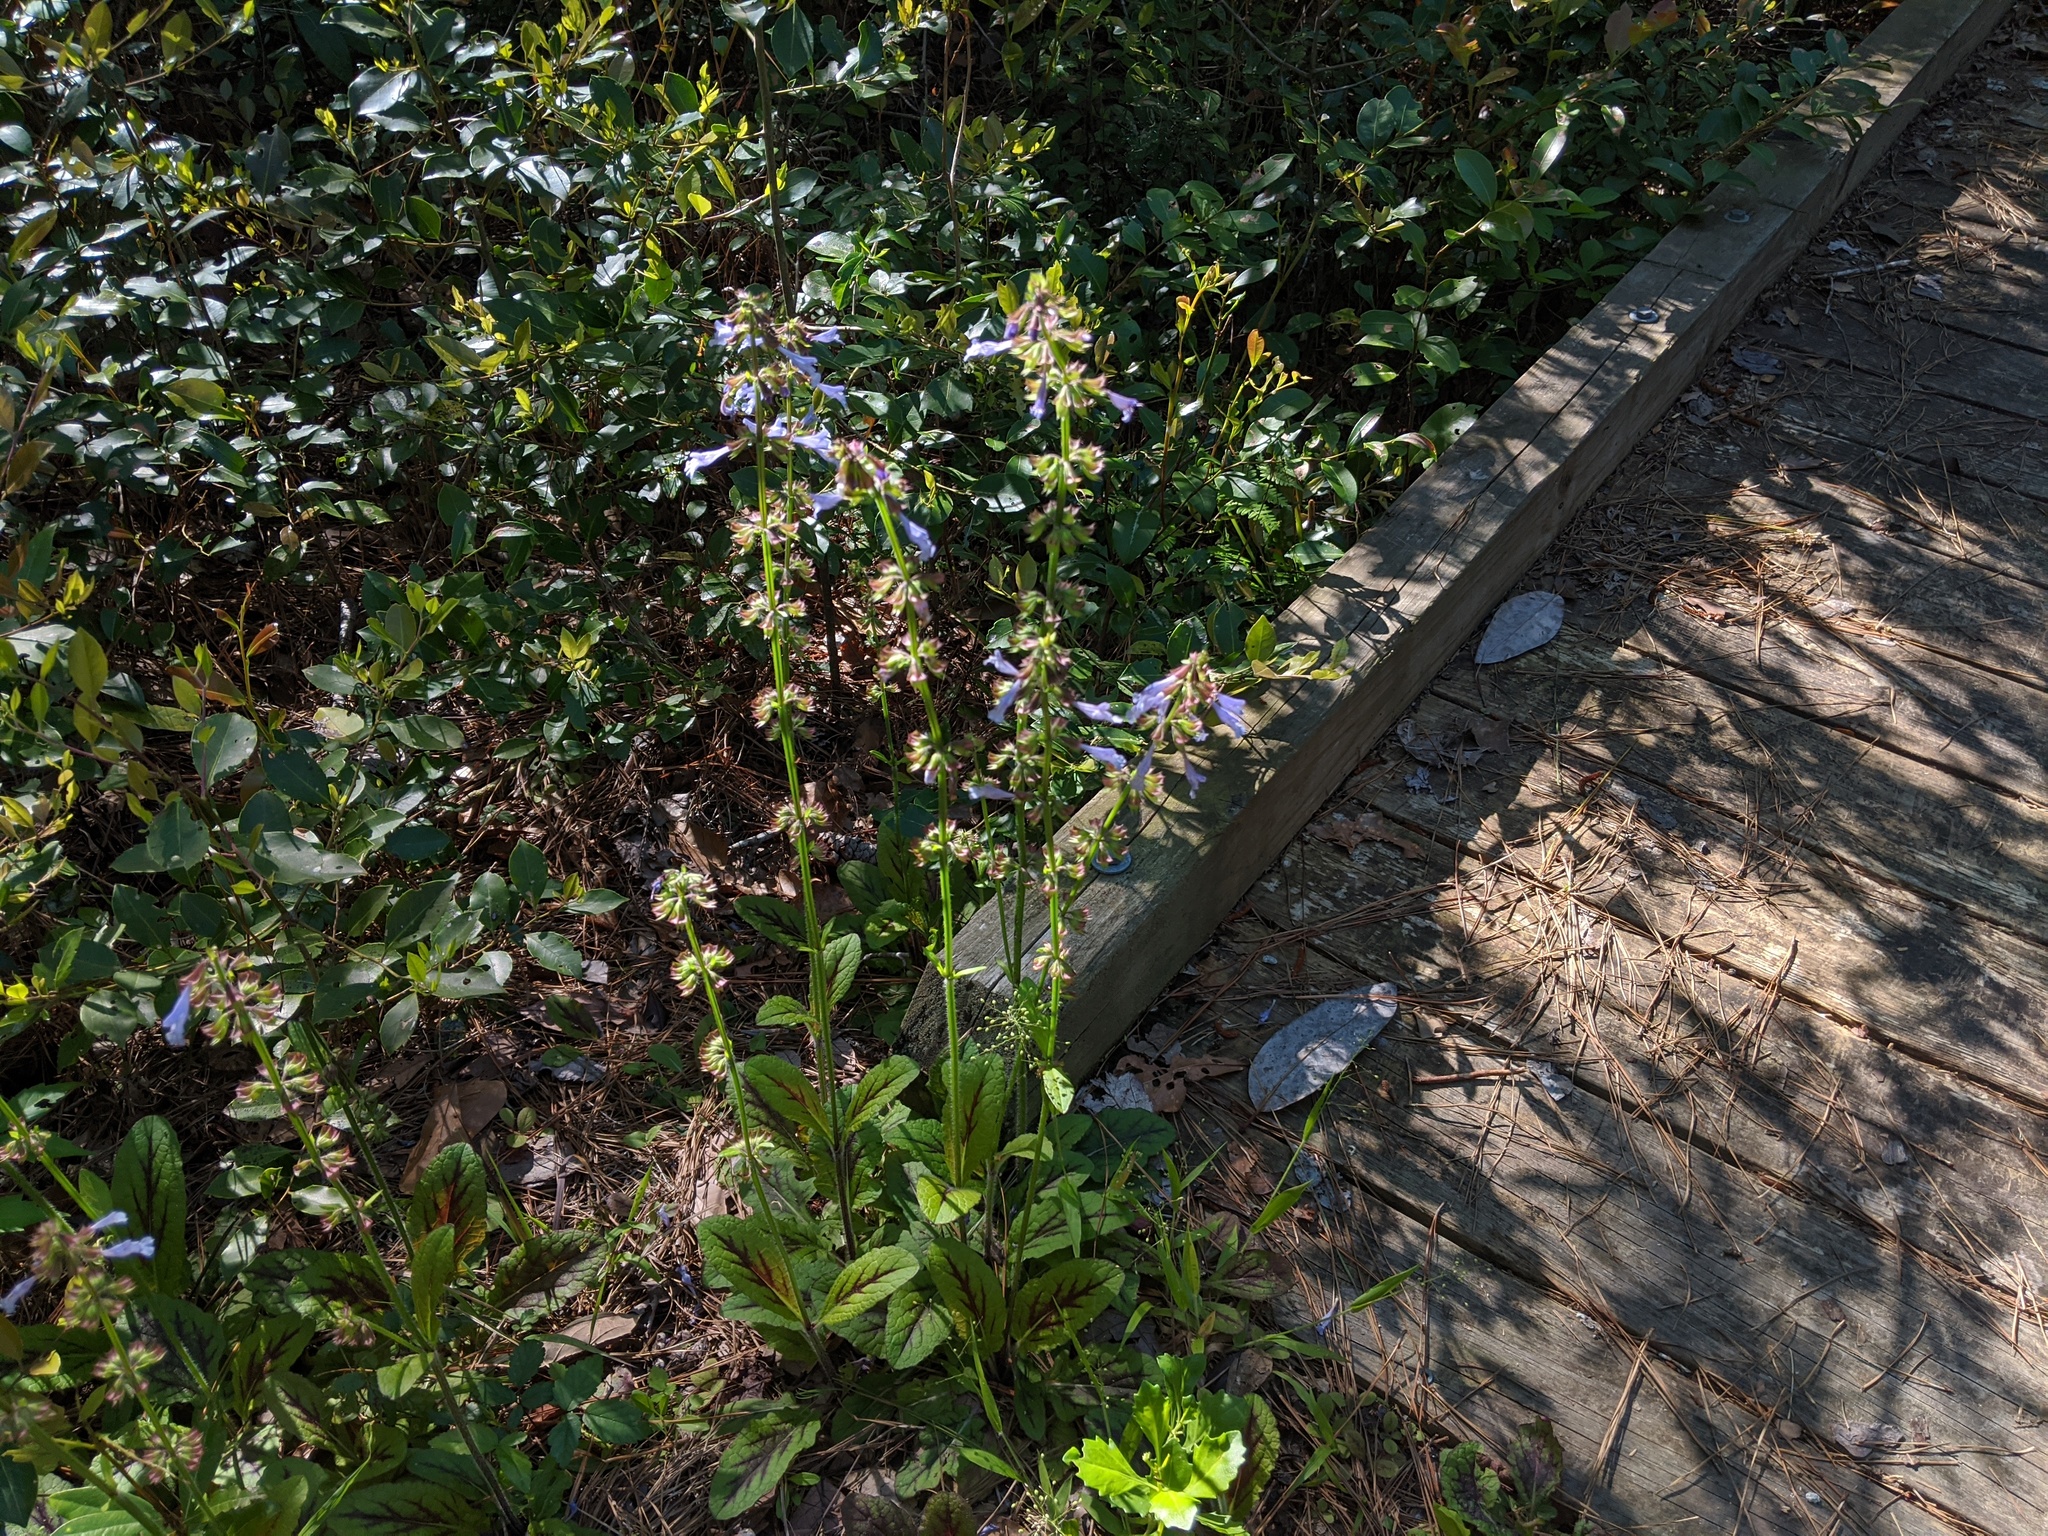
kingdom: Plantae
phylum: Tracheophyta
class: Magnoliopsida
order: Lamiales
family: Lamiaceae
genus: Salvia
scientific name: Salvia lyrata
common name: Cancerweed
